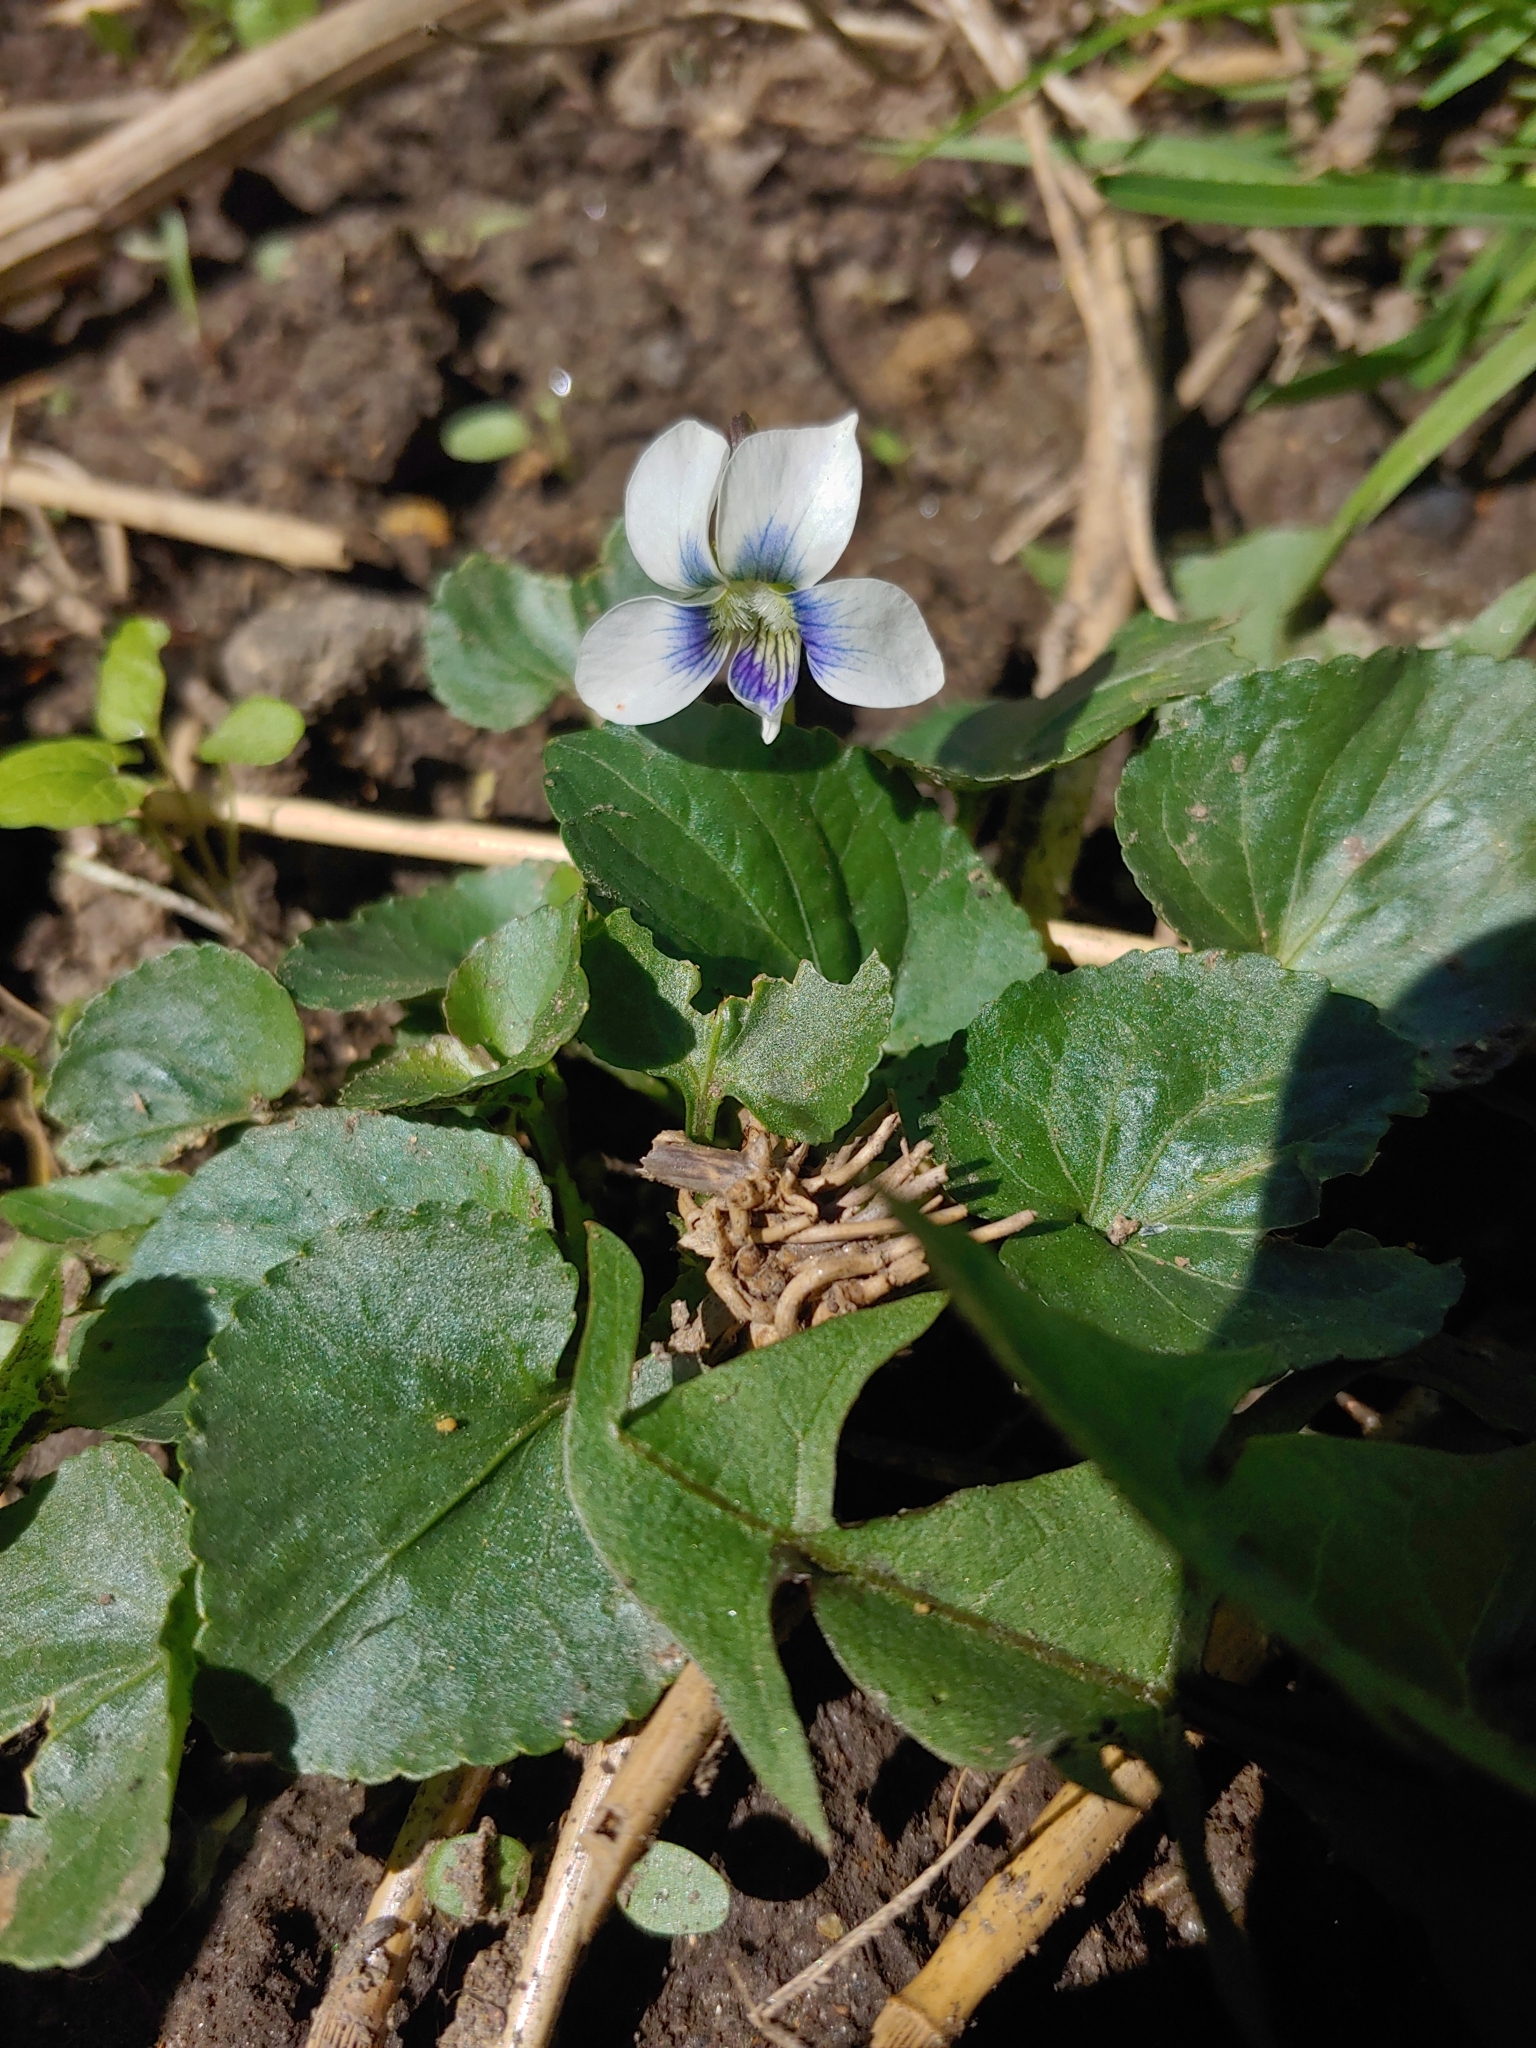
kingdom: Plantae
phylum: Tracheophyta
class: Magnoliopsida
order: Malpighiales
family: Violaceae
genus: Viola
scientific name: Viola sororia
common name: Dooryard violet
